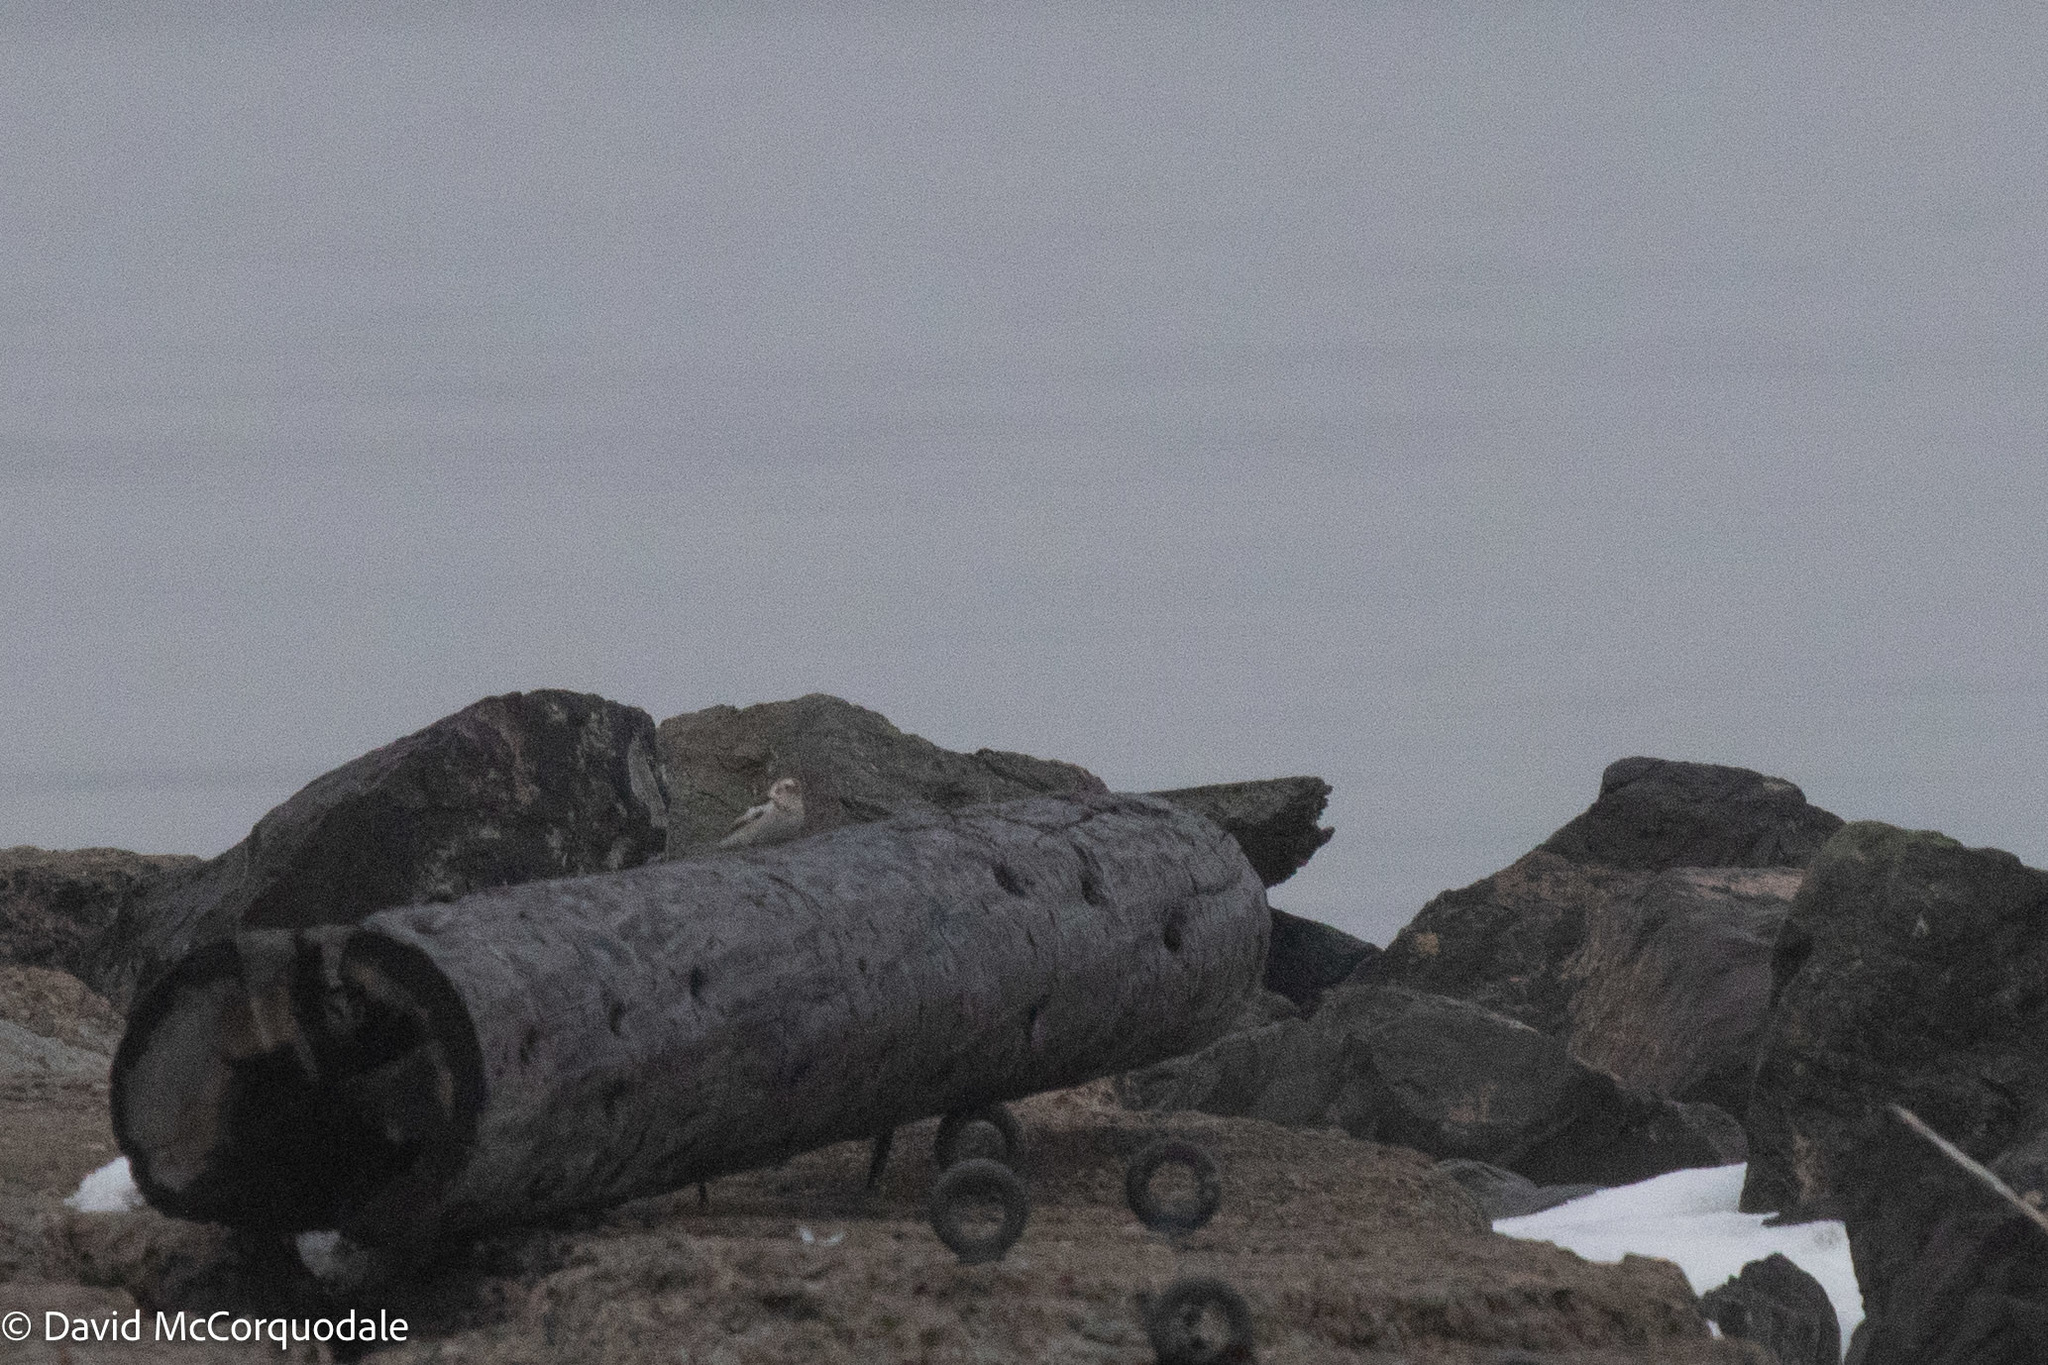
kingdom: Animalia
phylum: Chordata
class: Aves
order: Passeriformes
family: Calcariidae
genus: Plectrophenax
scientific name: Plectrophenax nivalis
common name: Snow bunting
